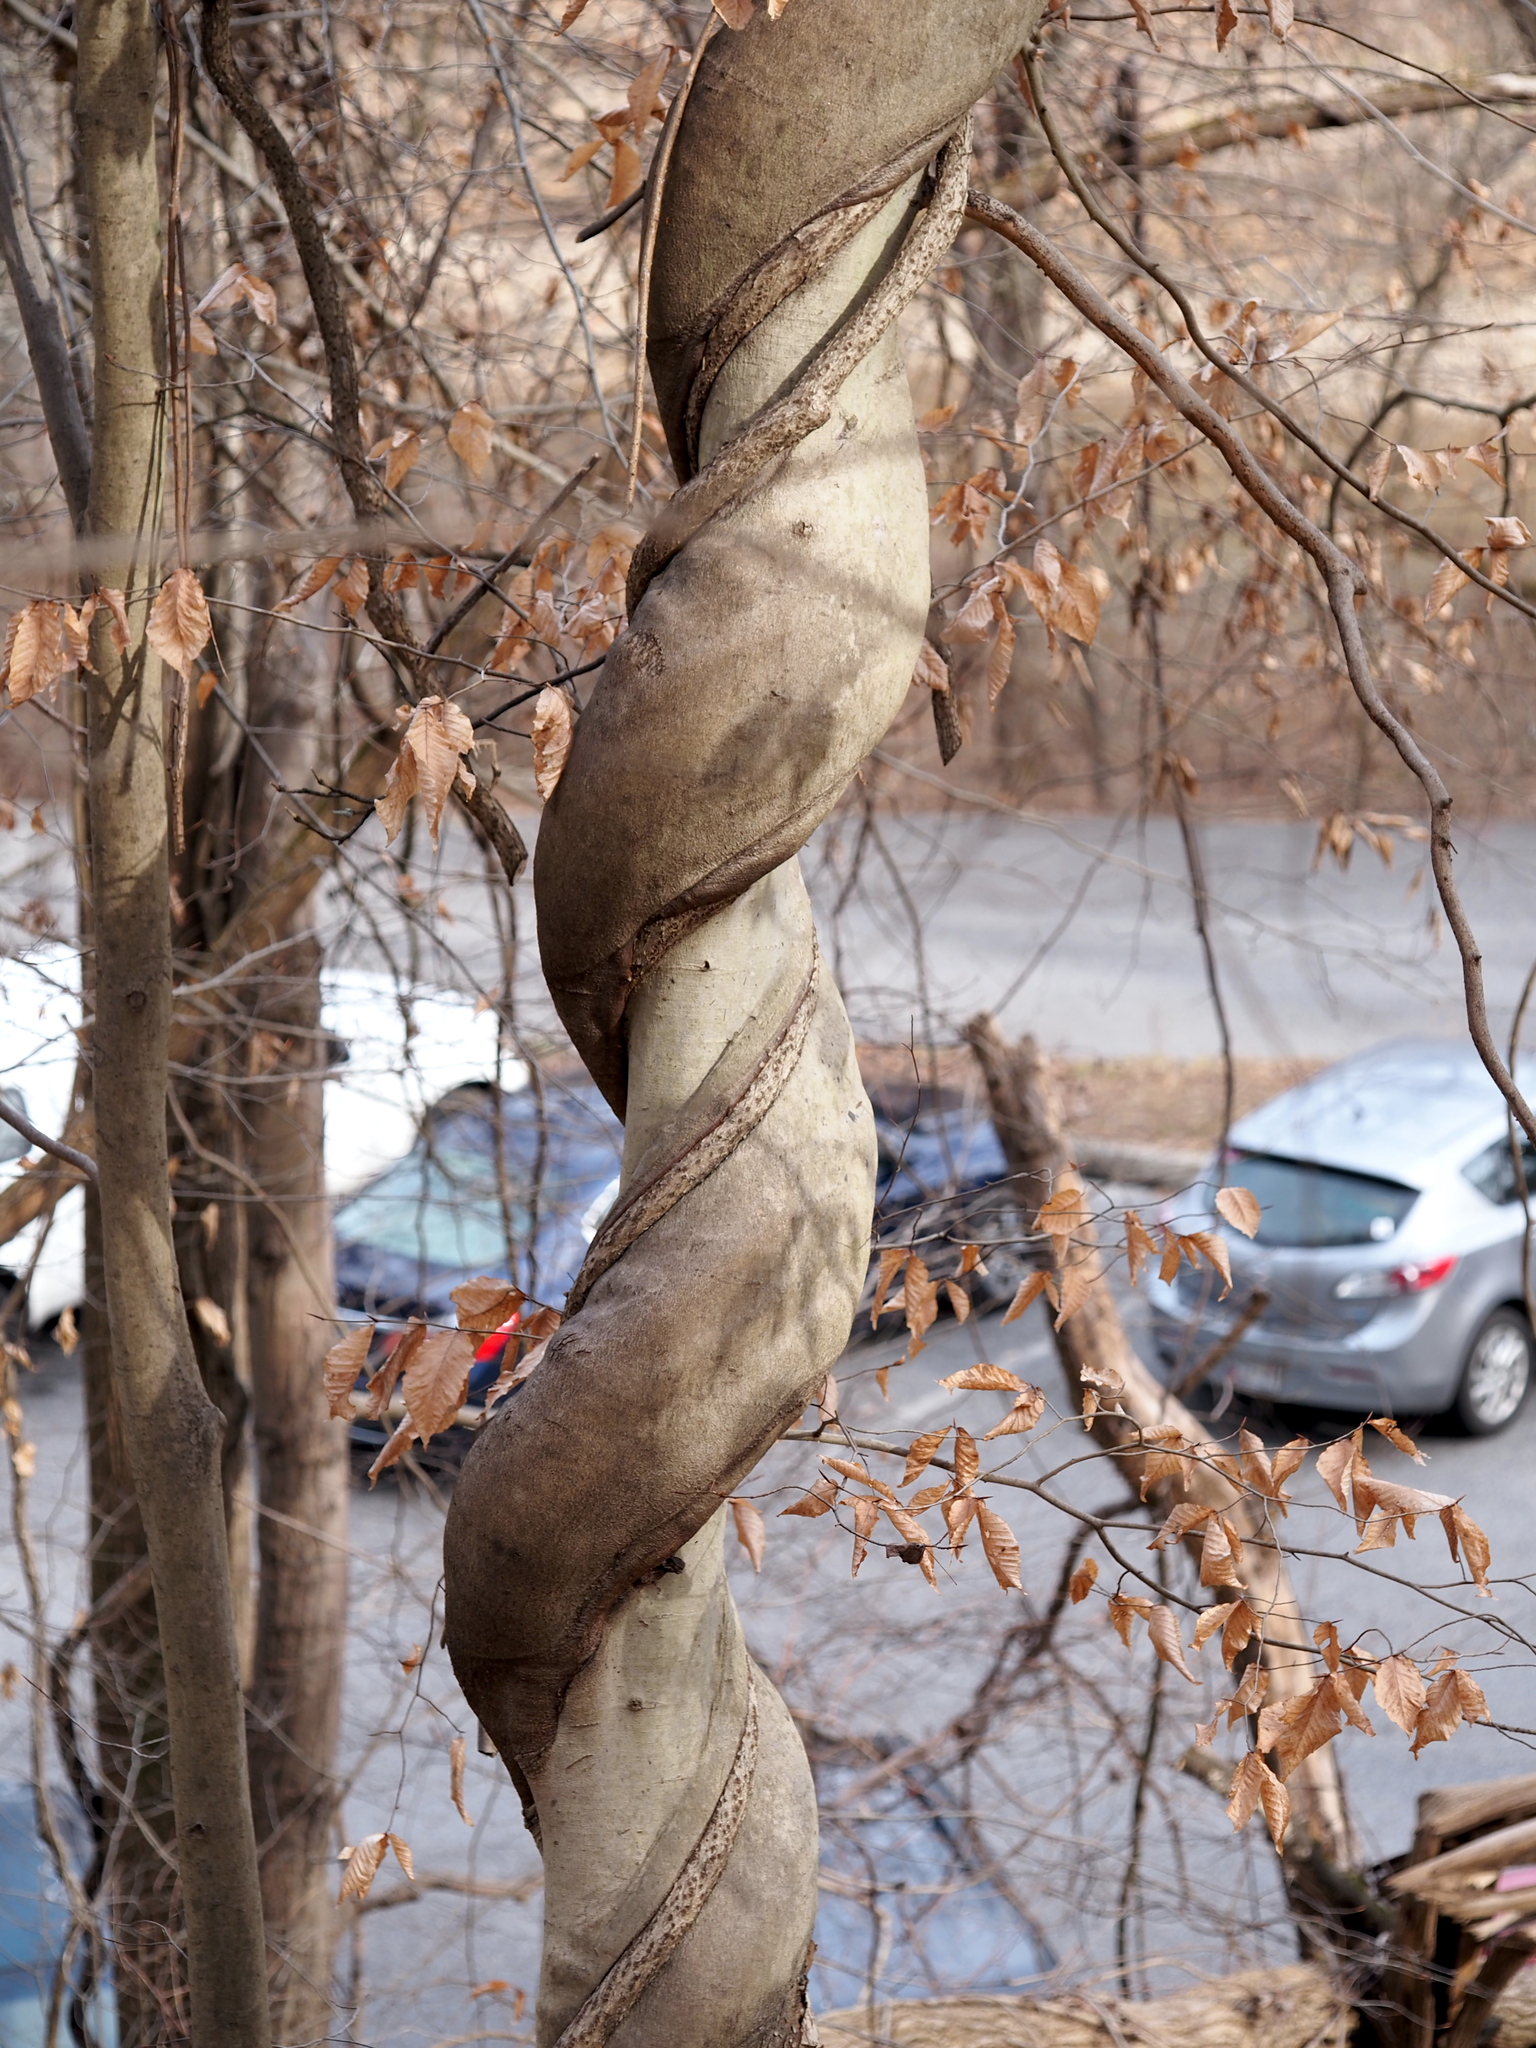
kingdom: Plantae
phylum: Tracheophyta
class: Magnoliopsida
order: Celastrales
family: Celastraceae
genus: Celastrus
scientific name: Celastrus orbiculatus
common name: Oriental bittersweet
